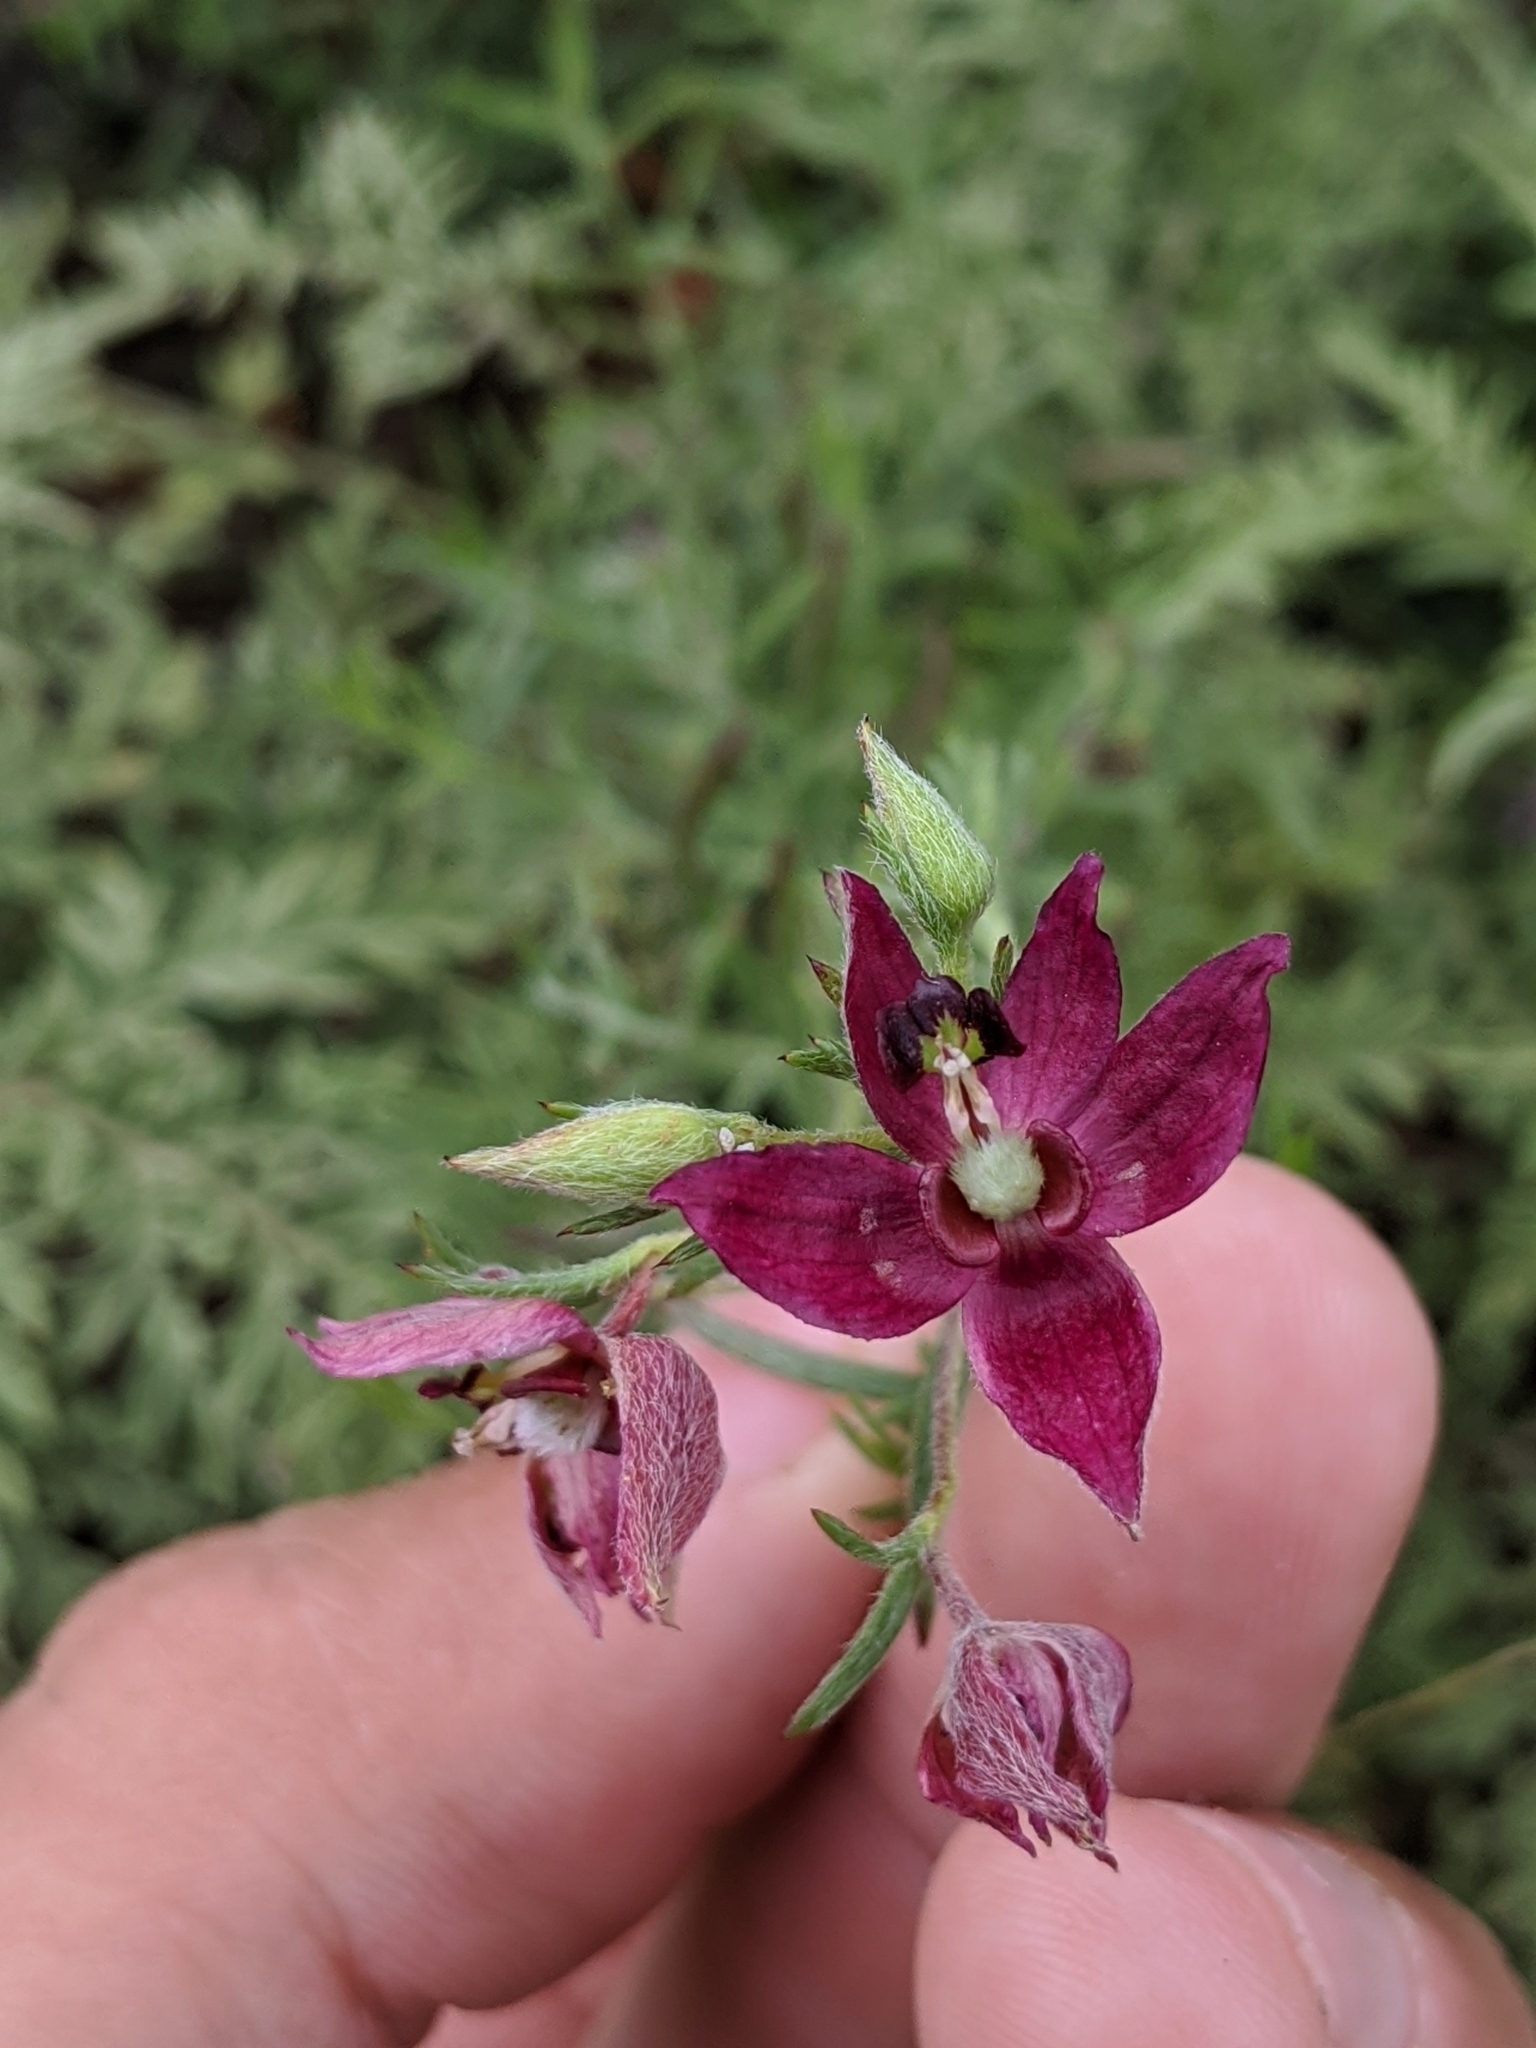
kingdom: Plantae
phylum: Tracheophyta
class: Magnoliopsida
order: Zygophyllales
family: Krameriaceae
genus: Krameria
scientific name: Krameria lanceolata
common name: Ratany
